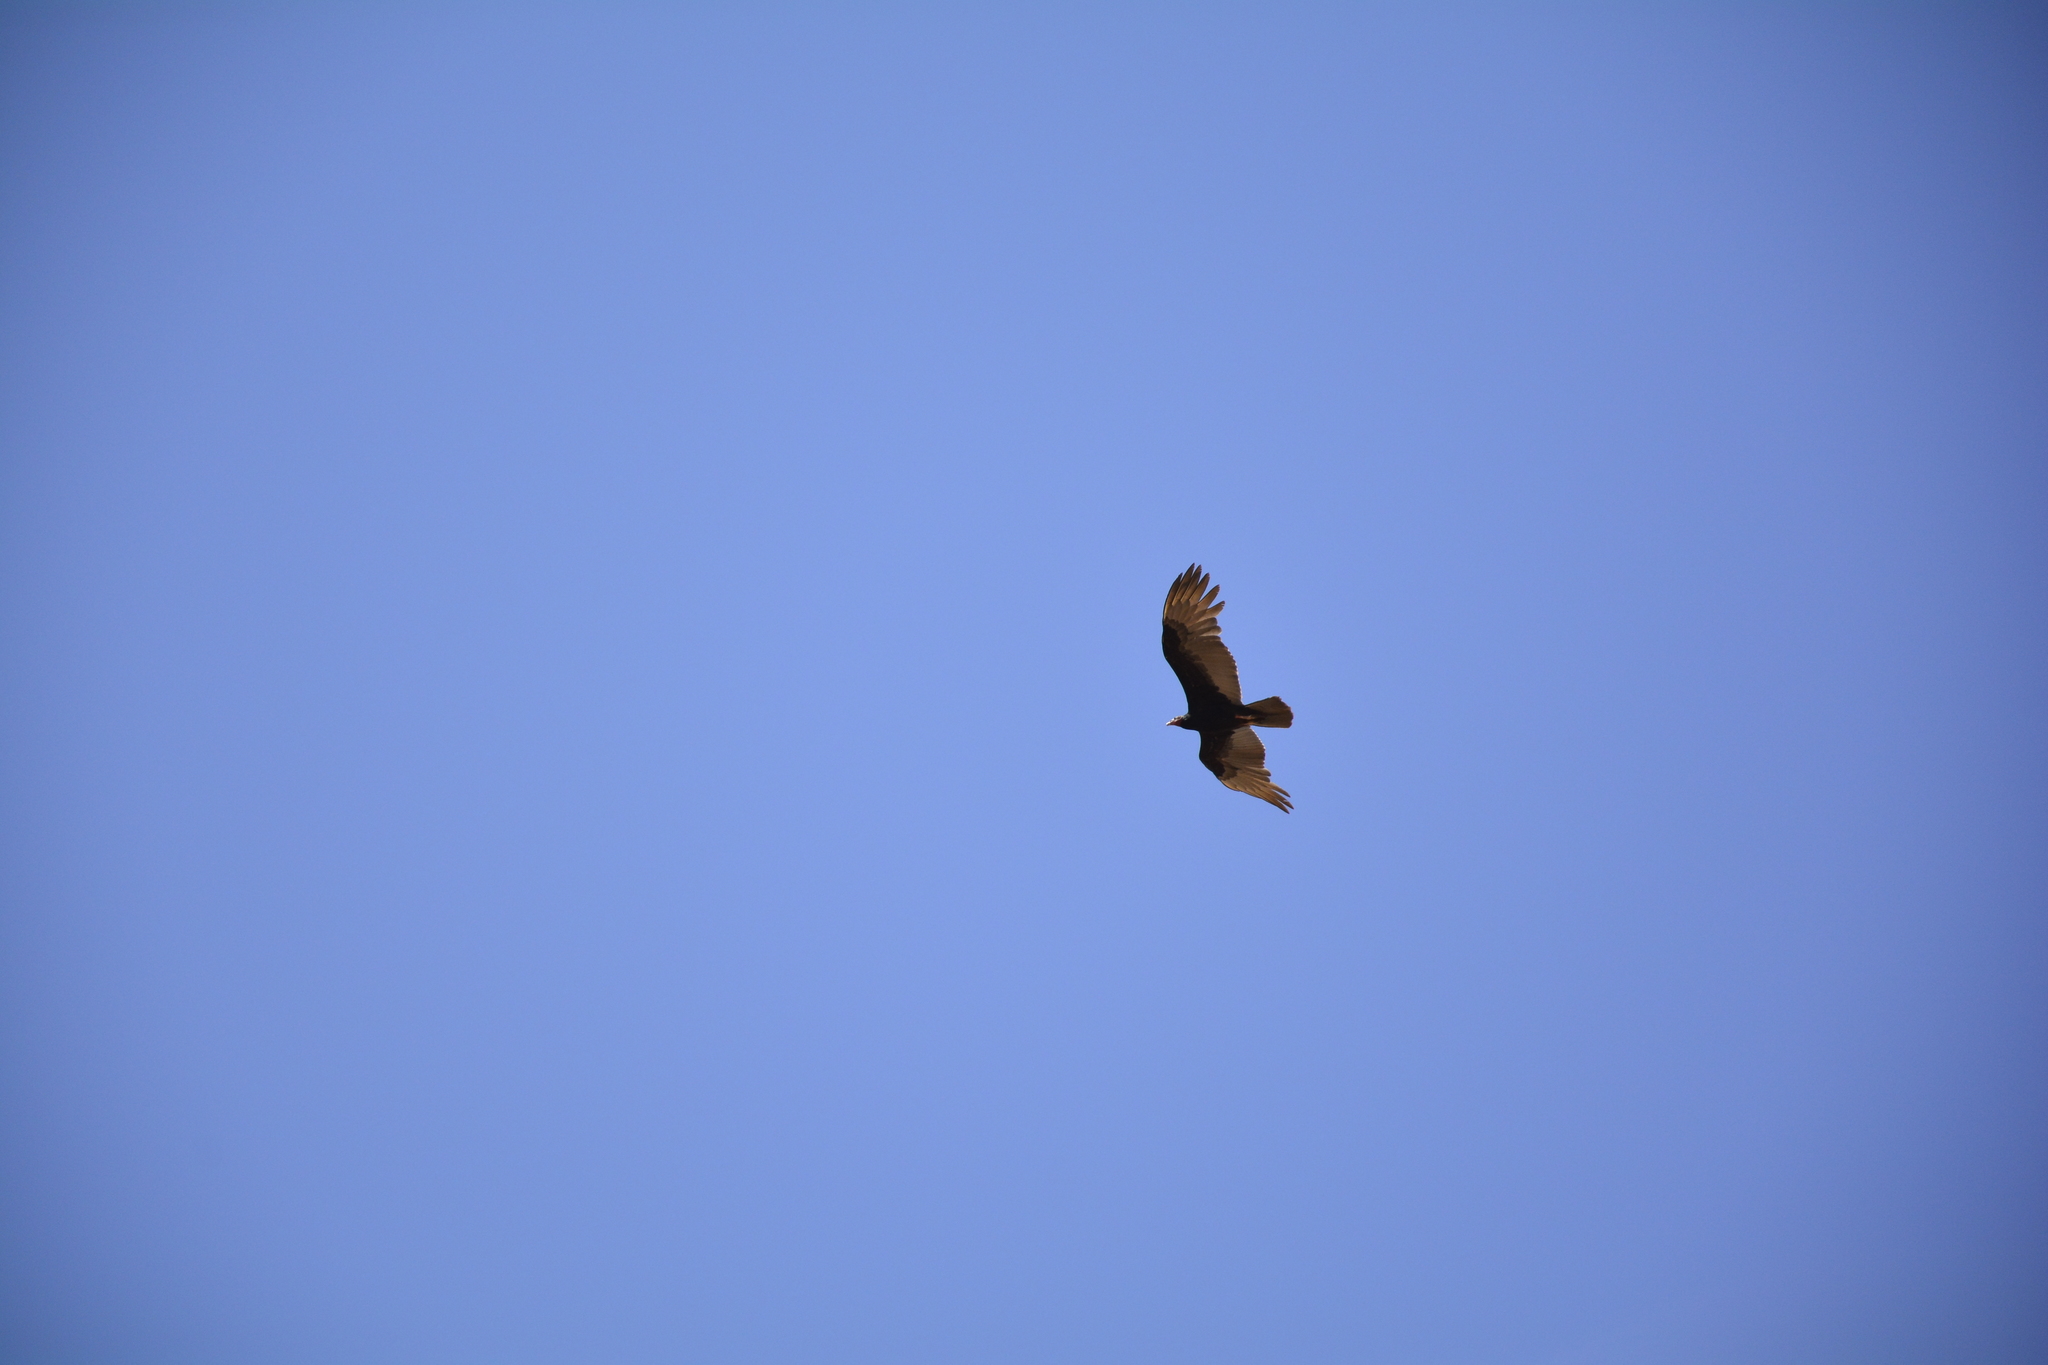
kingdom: Animalia
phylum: Chordata
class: Aves
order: Accipitriformes
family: Cathartidae
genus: Cathartes
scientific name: Cathartes burrovianus
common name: Lesser yellow-headed vulture
